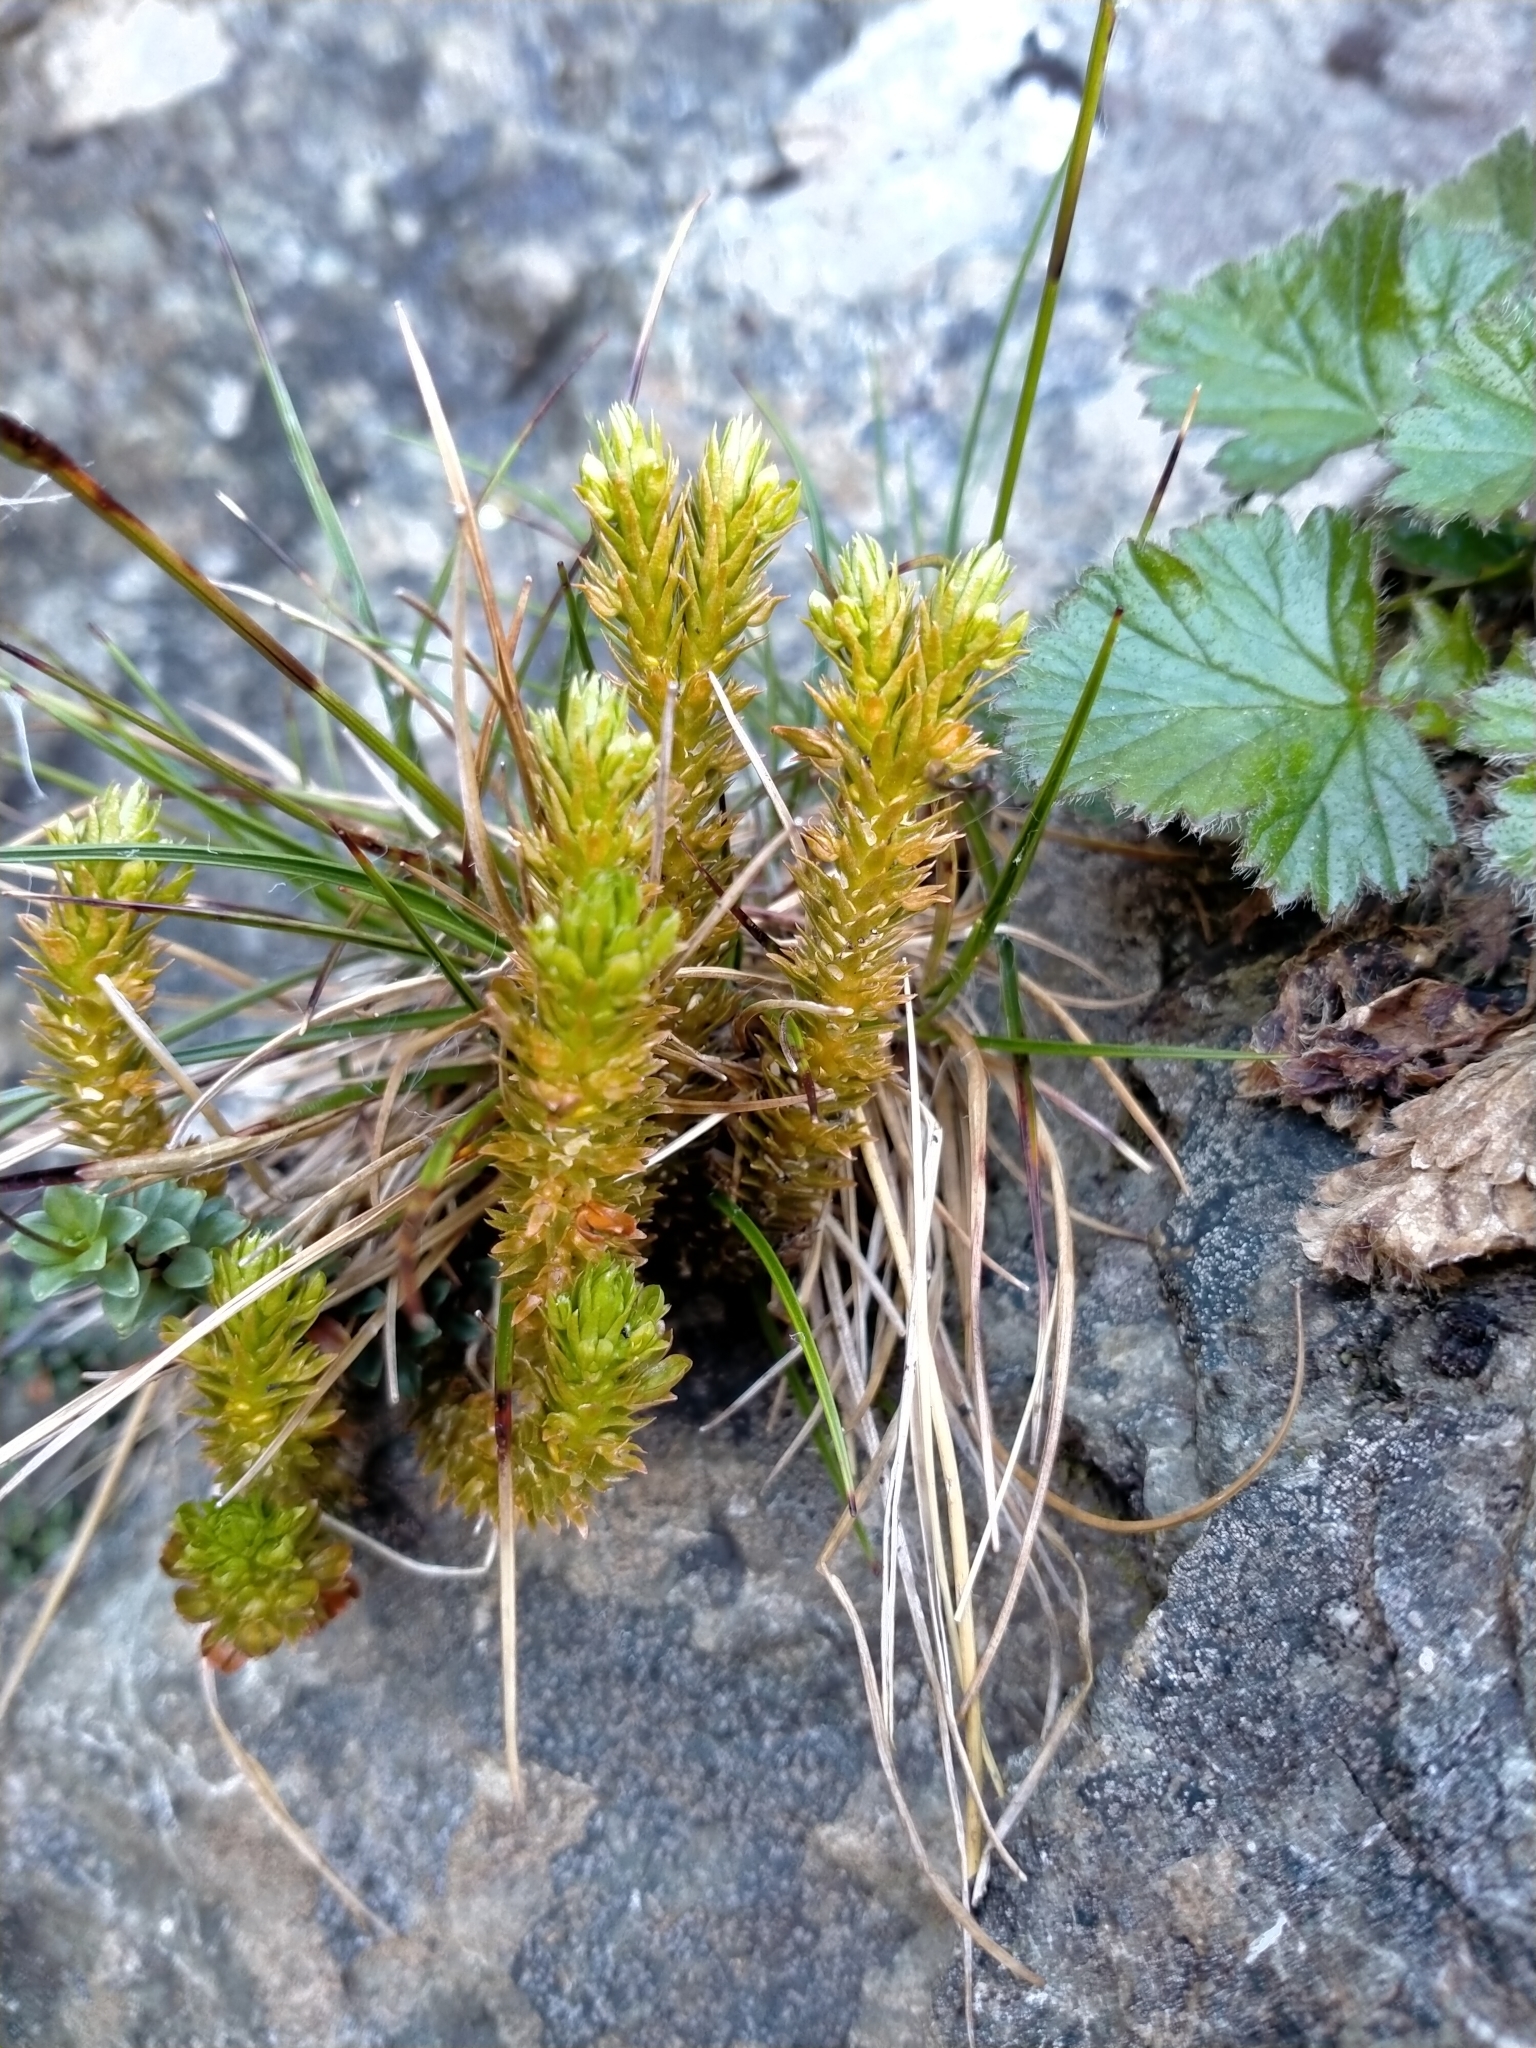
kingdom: Plantae
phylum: Tracheophyta
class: Lycopodiopsida
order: Lycopodiales
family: Lycopodiaceae
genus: Huperzia
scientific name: Huperzia australiana
